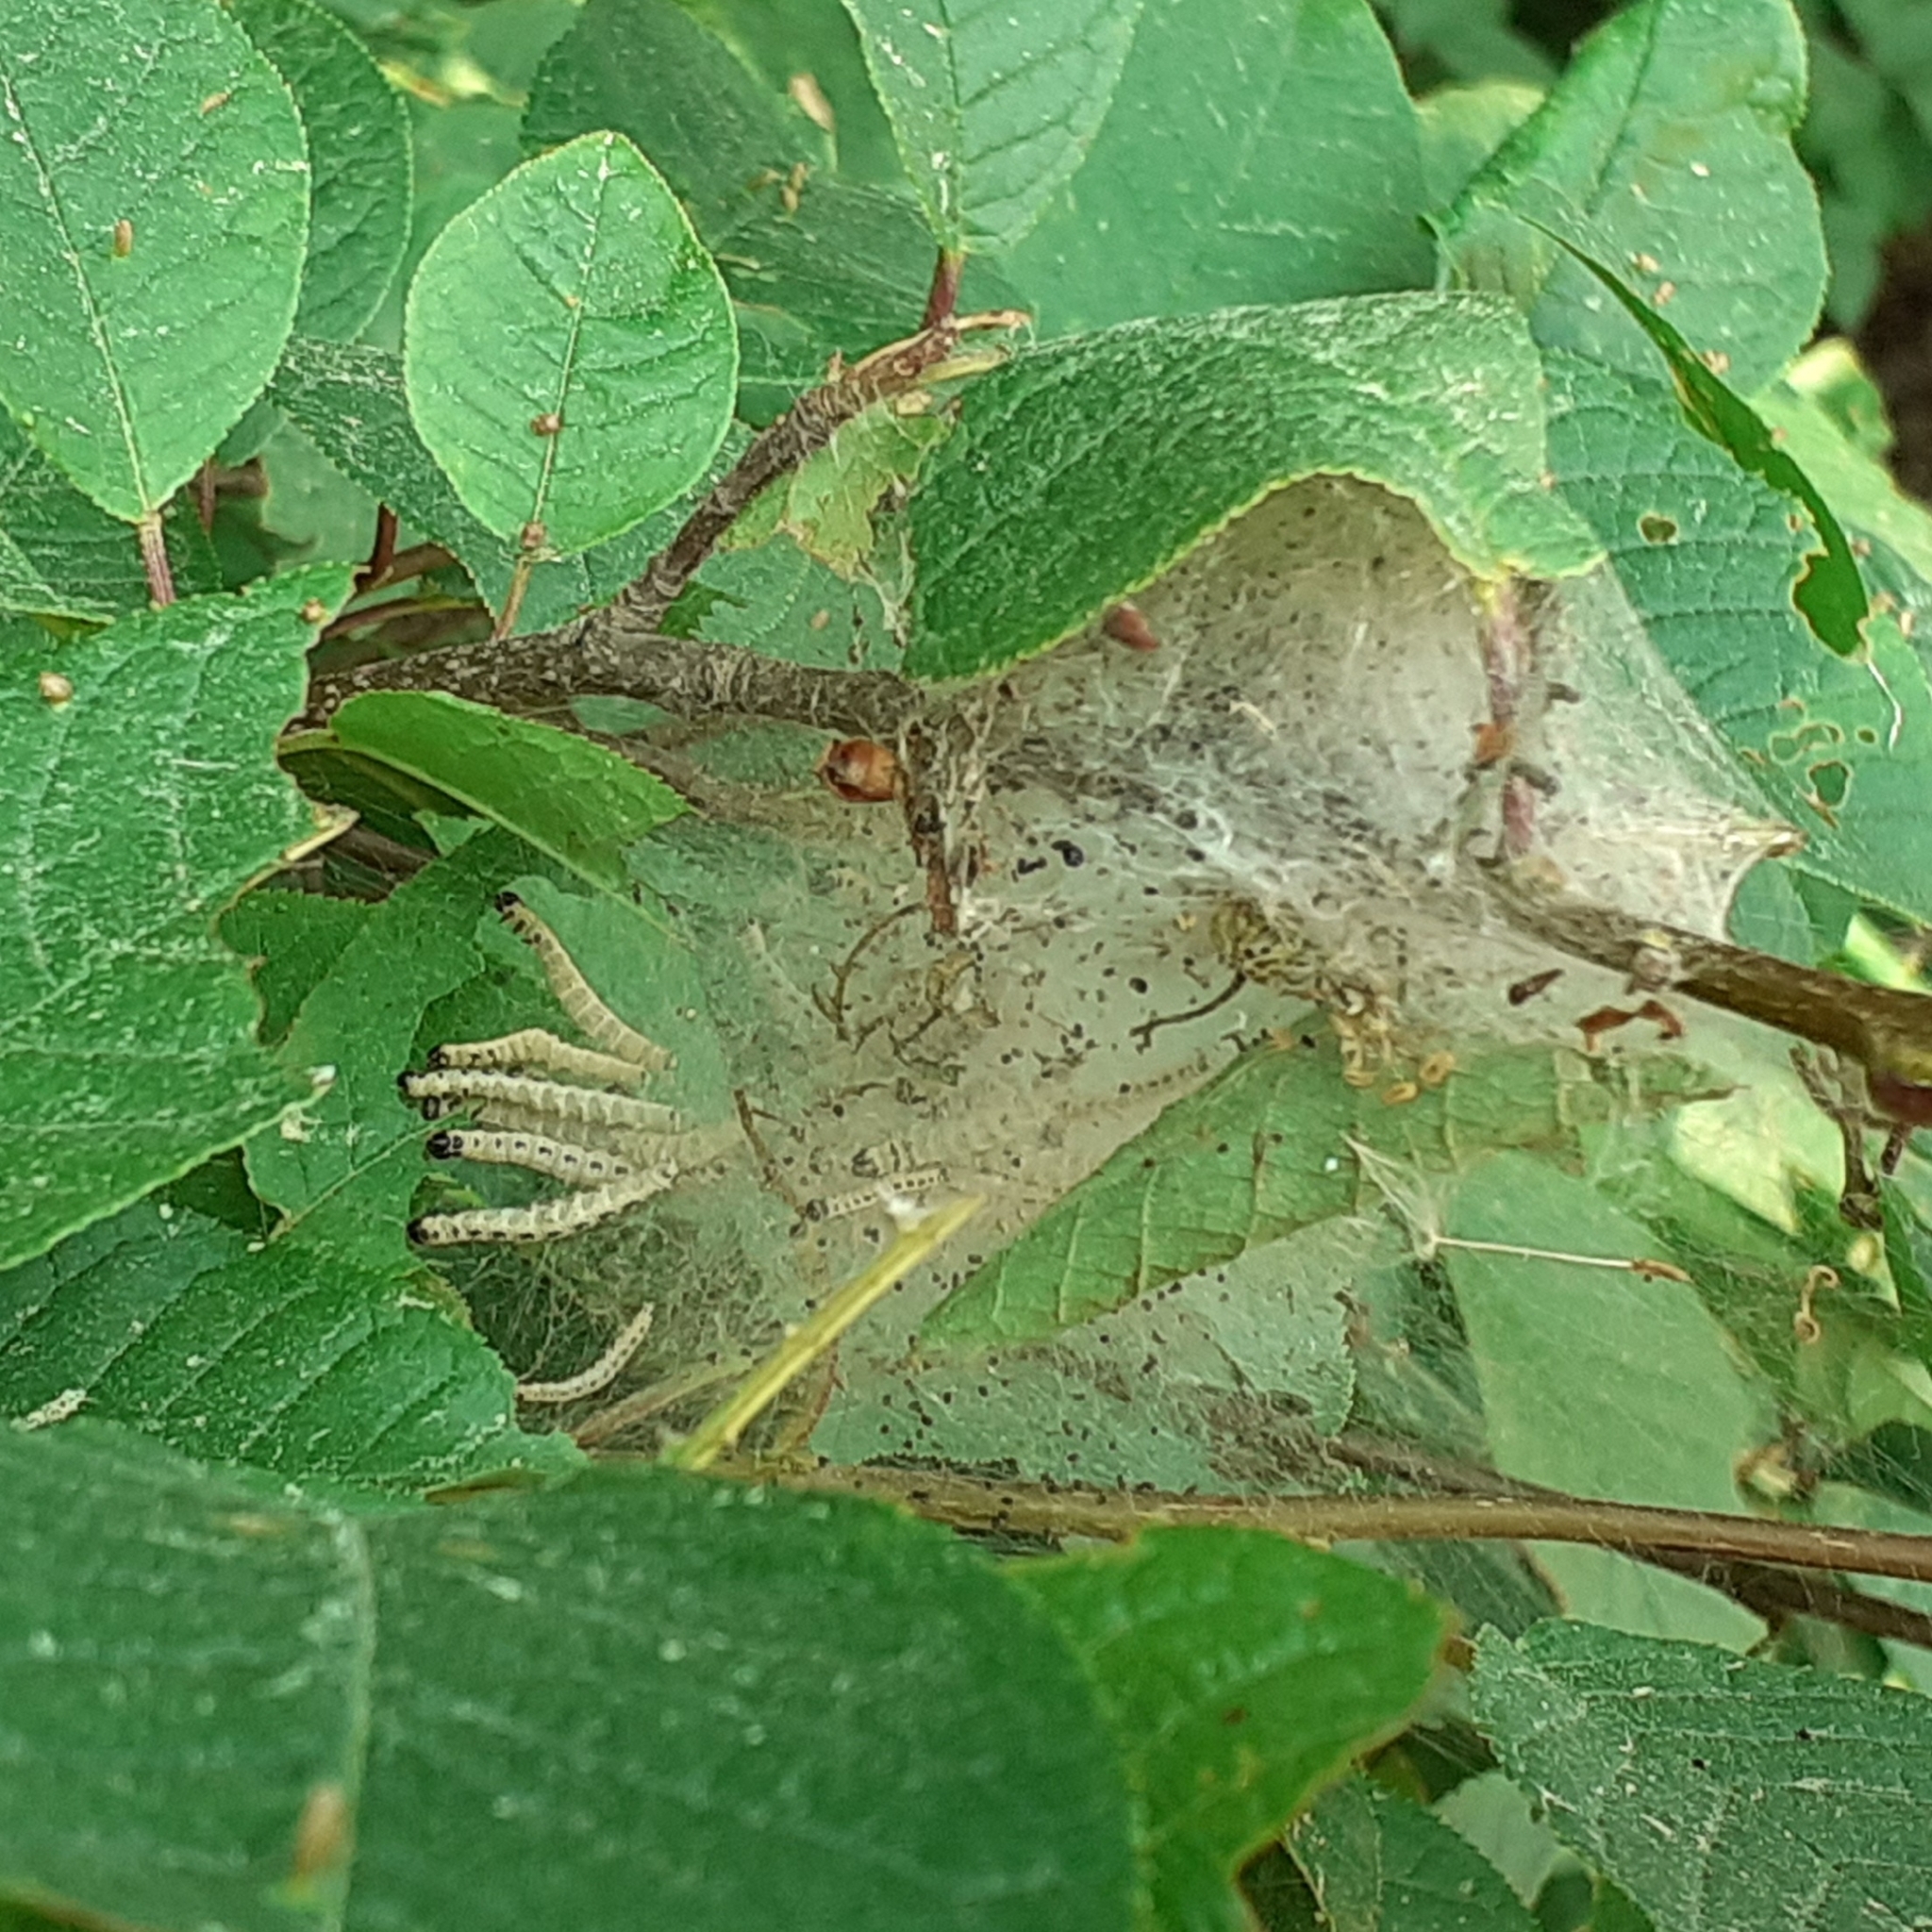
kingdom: Animalia
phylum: Arthropoda
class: Insecta
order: Lepidoptera
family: Yponomeutidae
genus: Yponomeuta
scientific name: Yponomeuta evonymella
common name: Bird-cherry ermine
